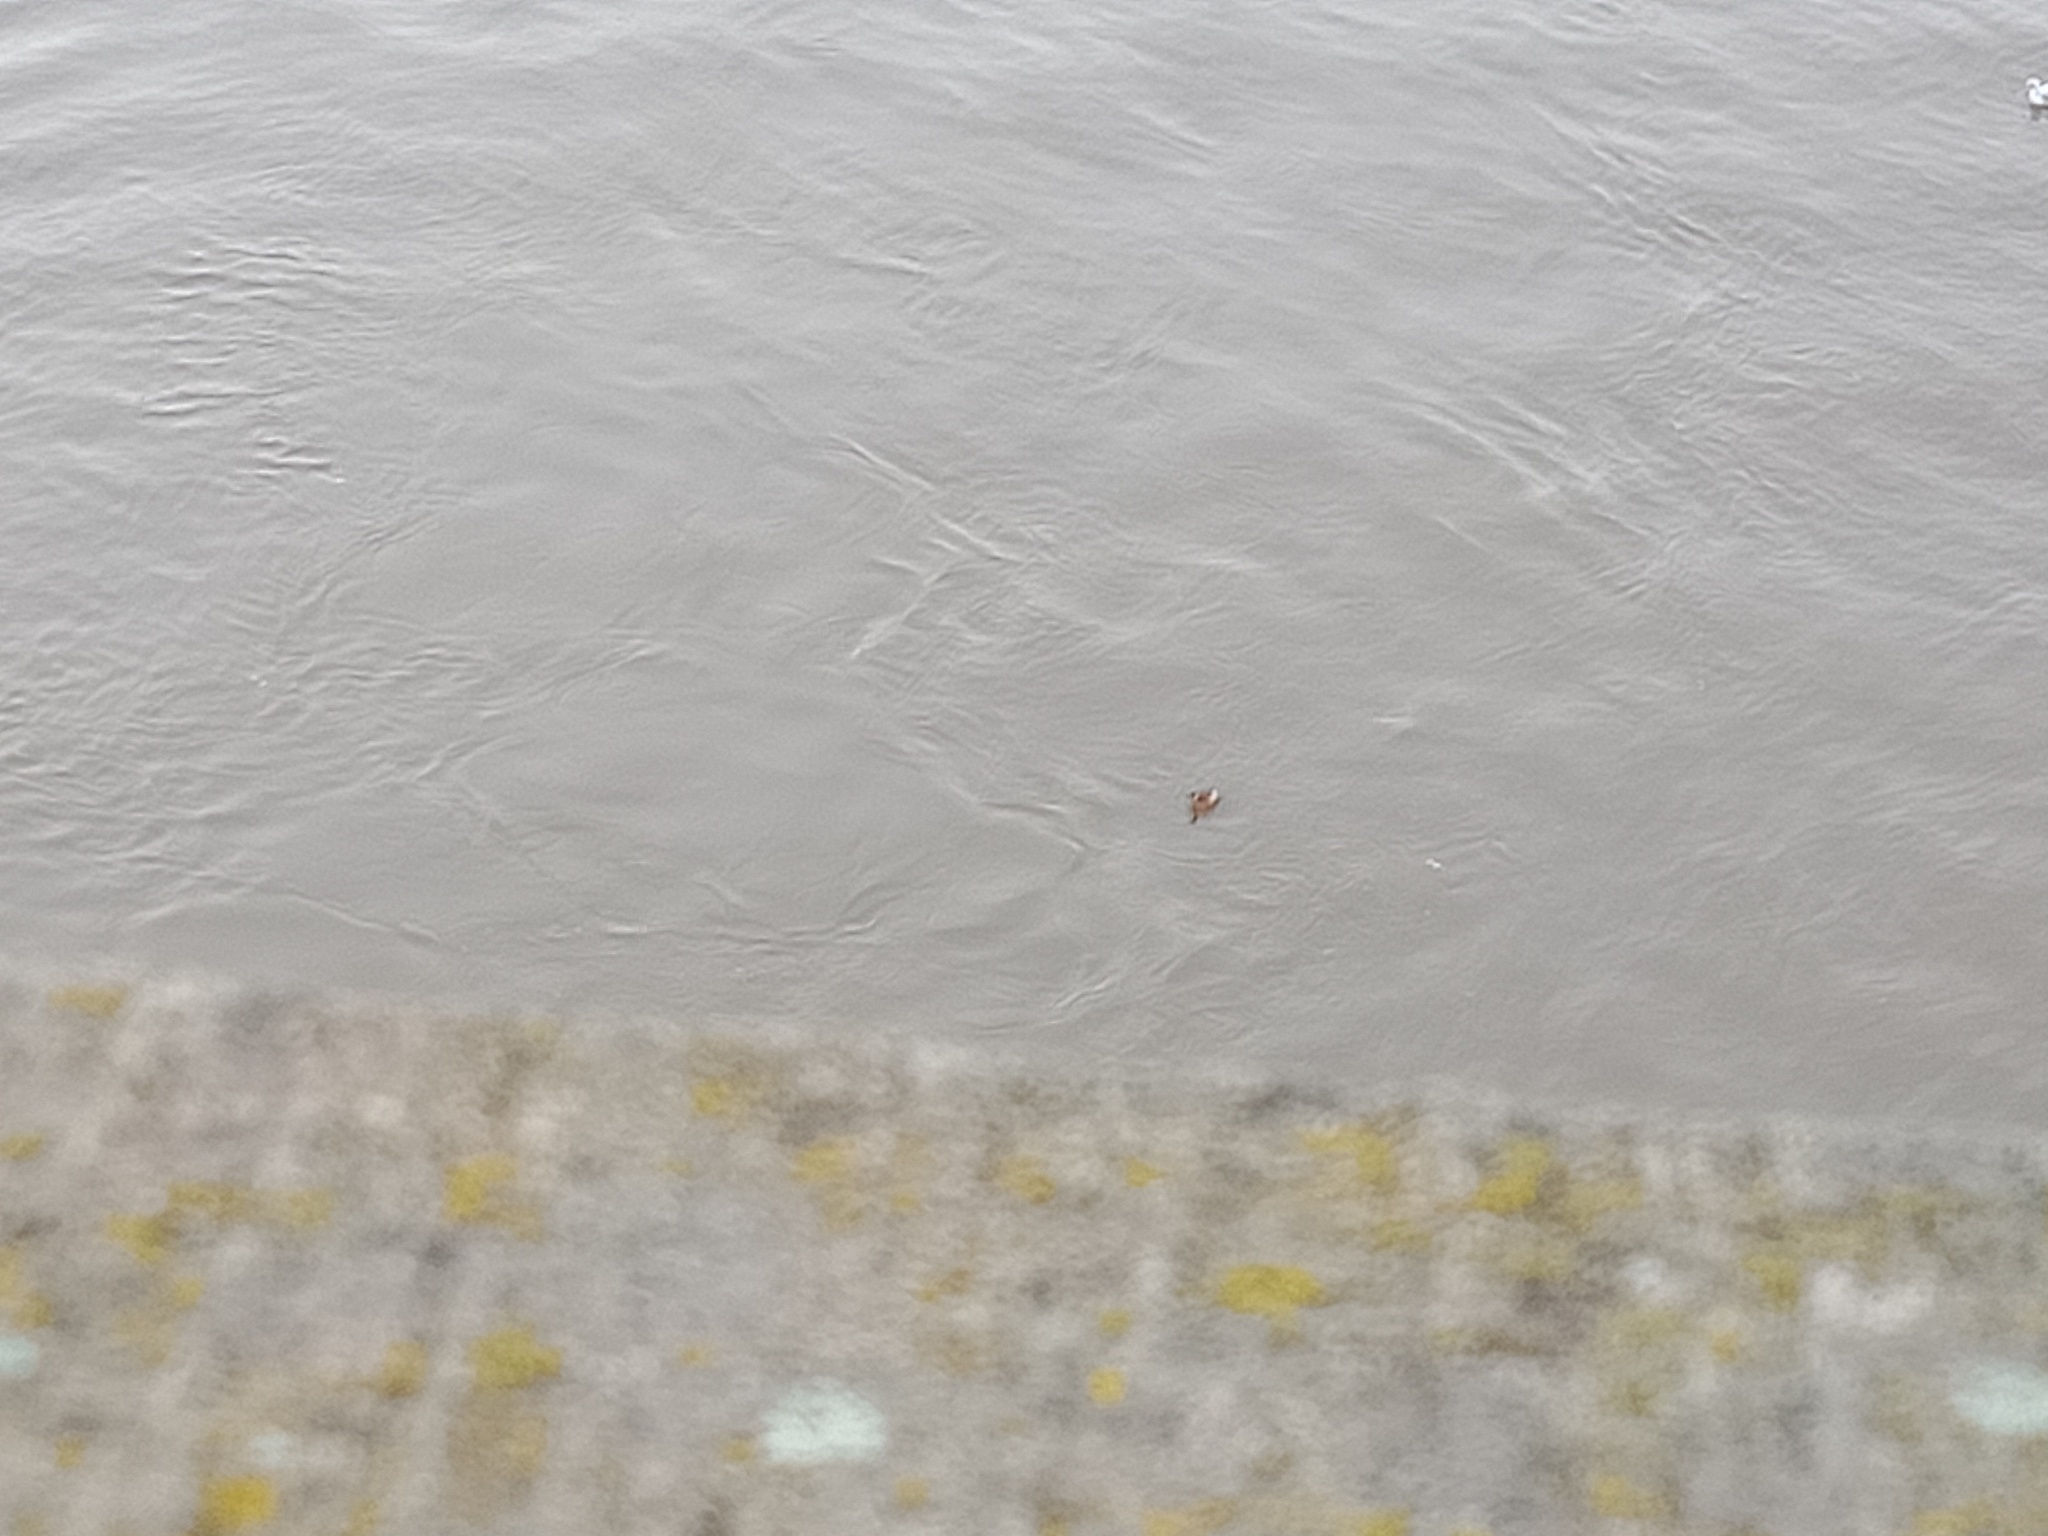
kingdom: Animalia
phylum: Chordata
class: Aves
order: Podicipediformes
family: Podicipedidae
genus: Tachybaptus
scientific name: Tachybaptus ruficollis
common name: Little grebe
